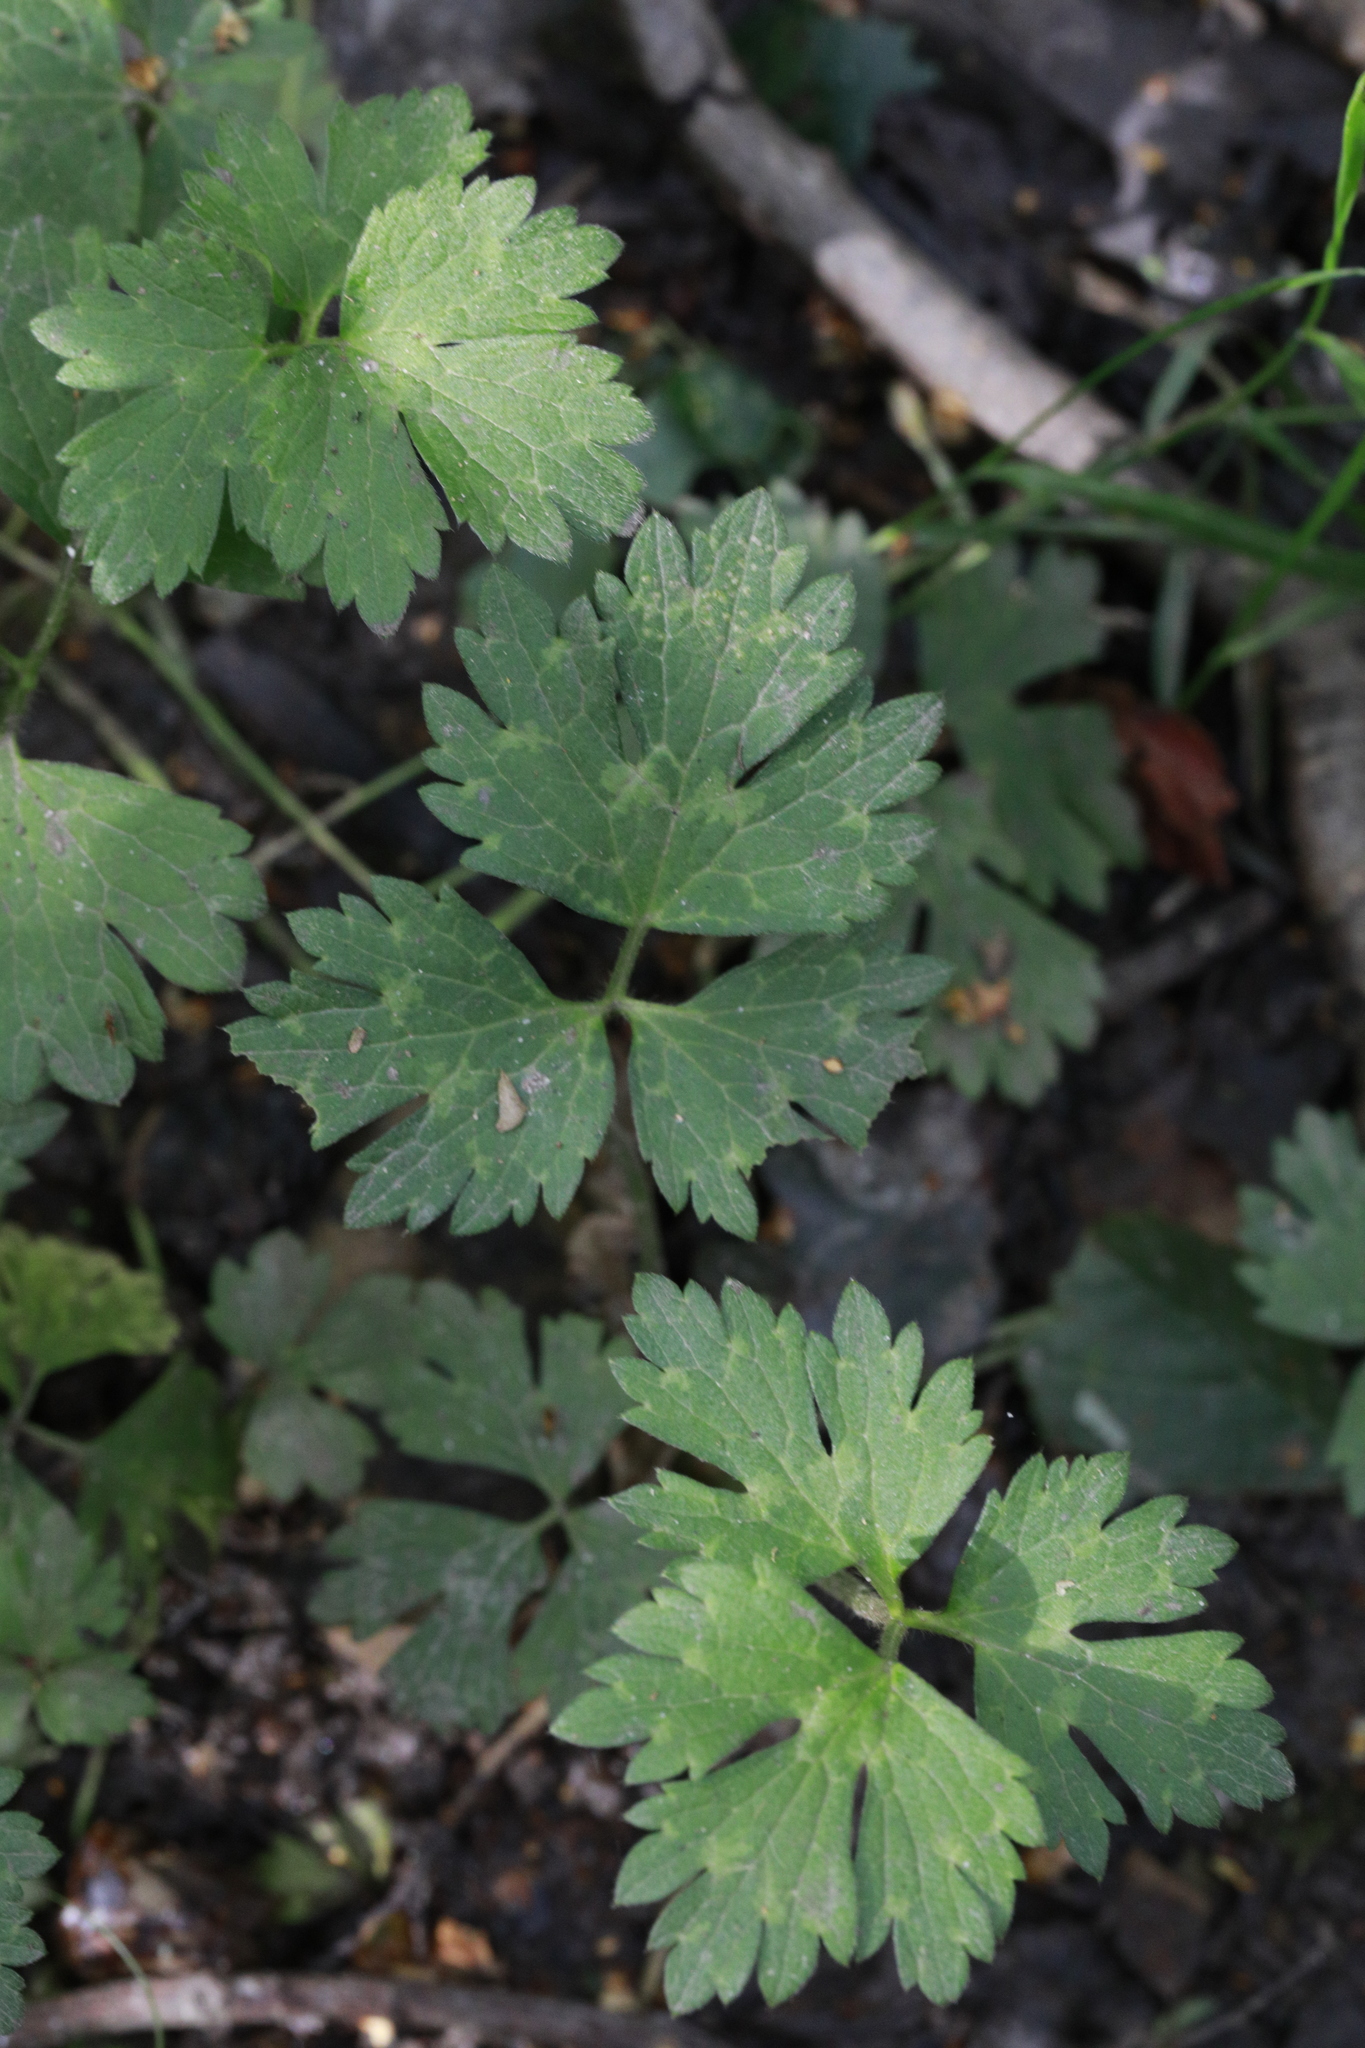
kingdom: Plantae
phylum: Tracheophyta
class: Magnoliopsida
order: Ranunculales
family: Ranunculaceae
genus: Ranunculus
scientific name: Ranunculus repens
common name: Creeping buttercup
